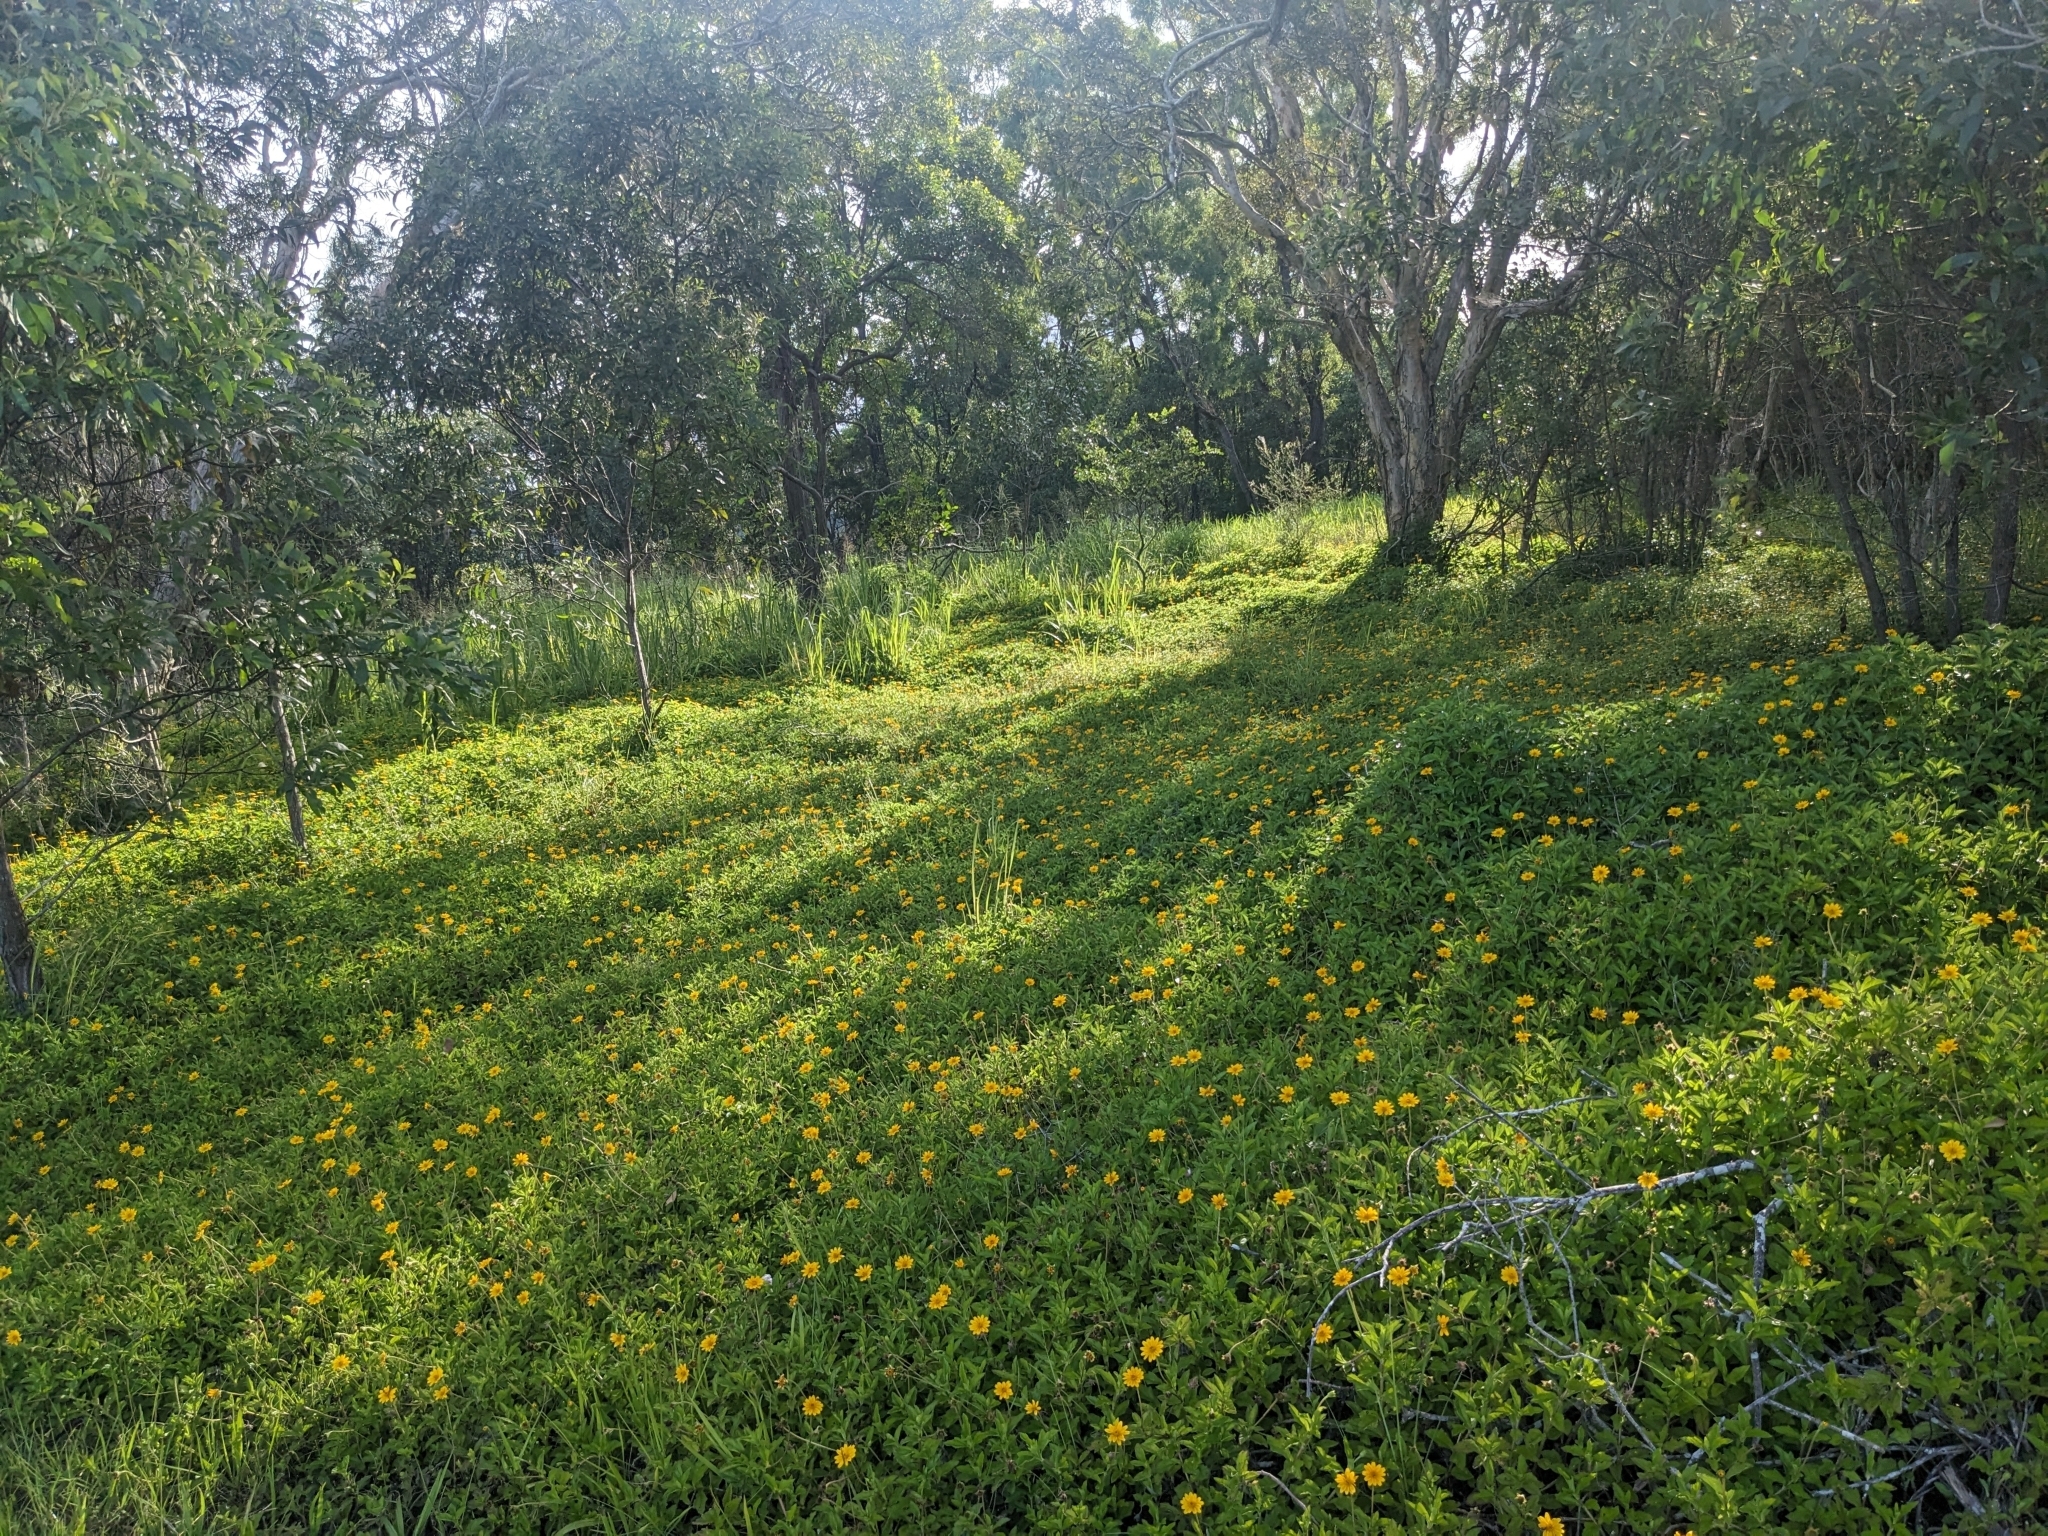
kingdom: Plantae
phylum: Tracheophyta
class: Magnoliopsida
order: Asterales
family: Asteraceae
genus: Sphagneticola
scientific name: Sphagneticola trilobata
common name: Bay biscayne creeping-oxeye
